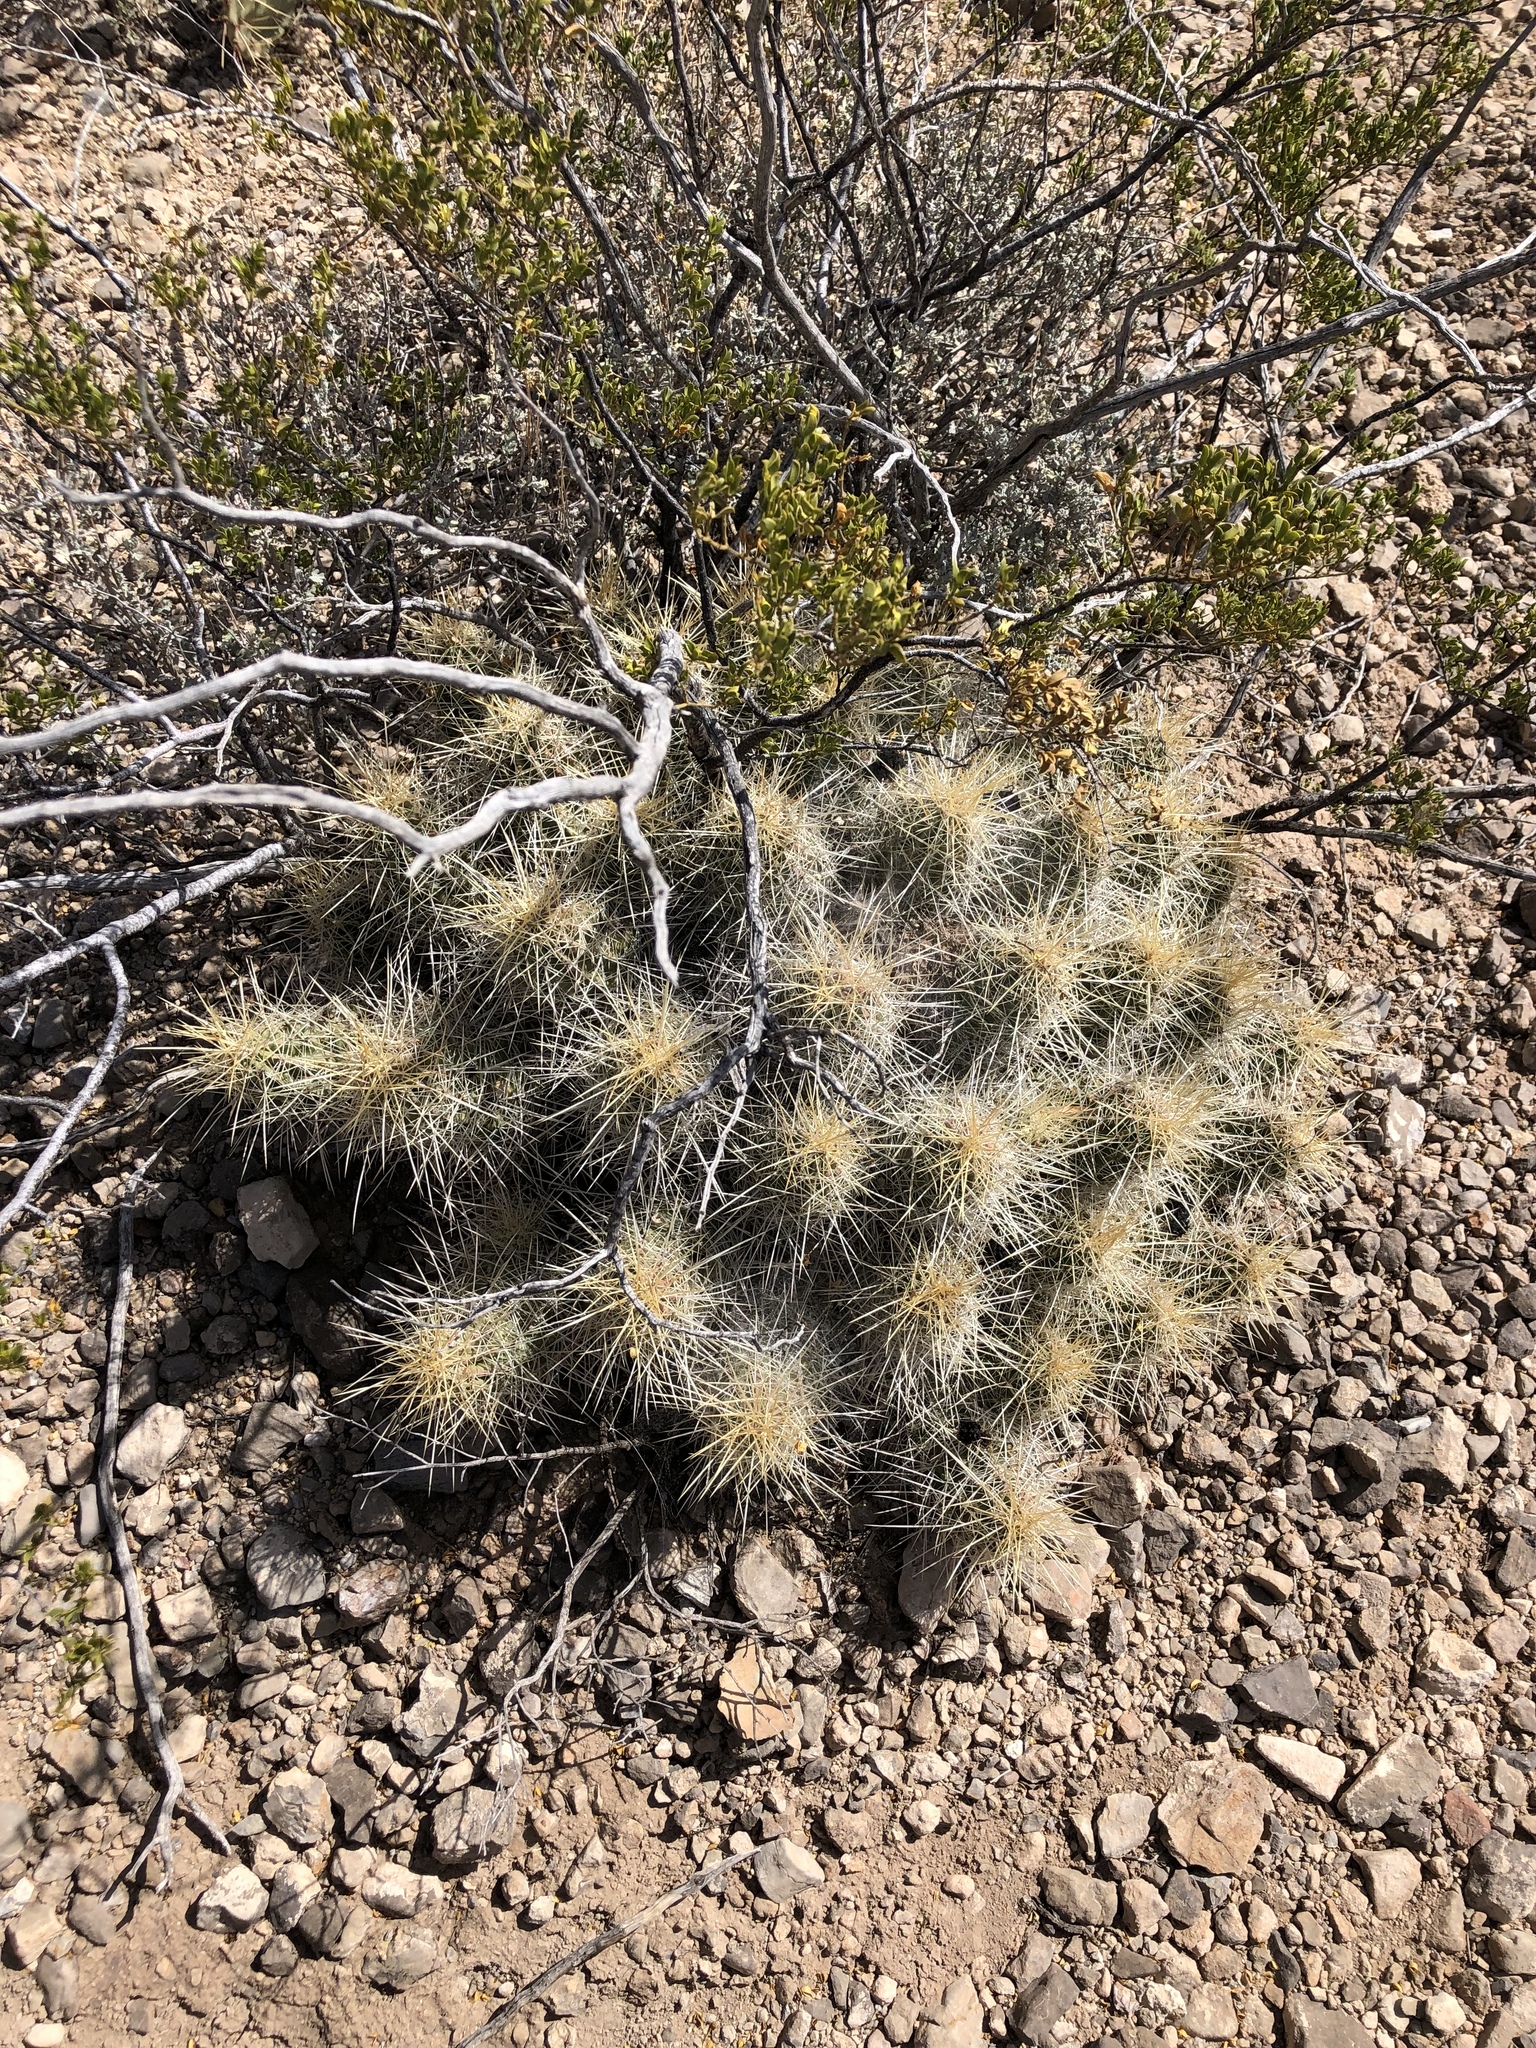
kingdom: Plantae
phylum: Tracheophyta
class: Magnoliopsida
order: Caryophyllales
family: Cactaceae
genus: Echinocereus
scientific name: Echinocereus stramineus
